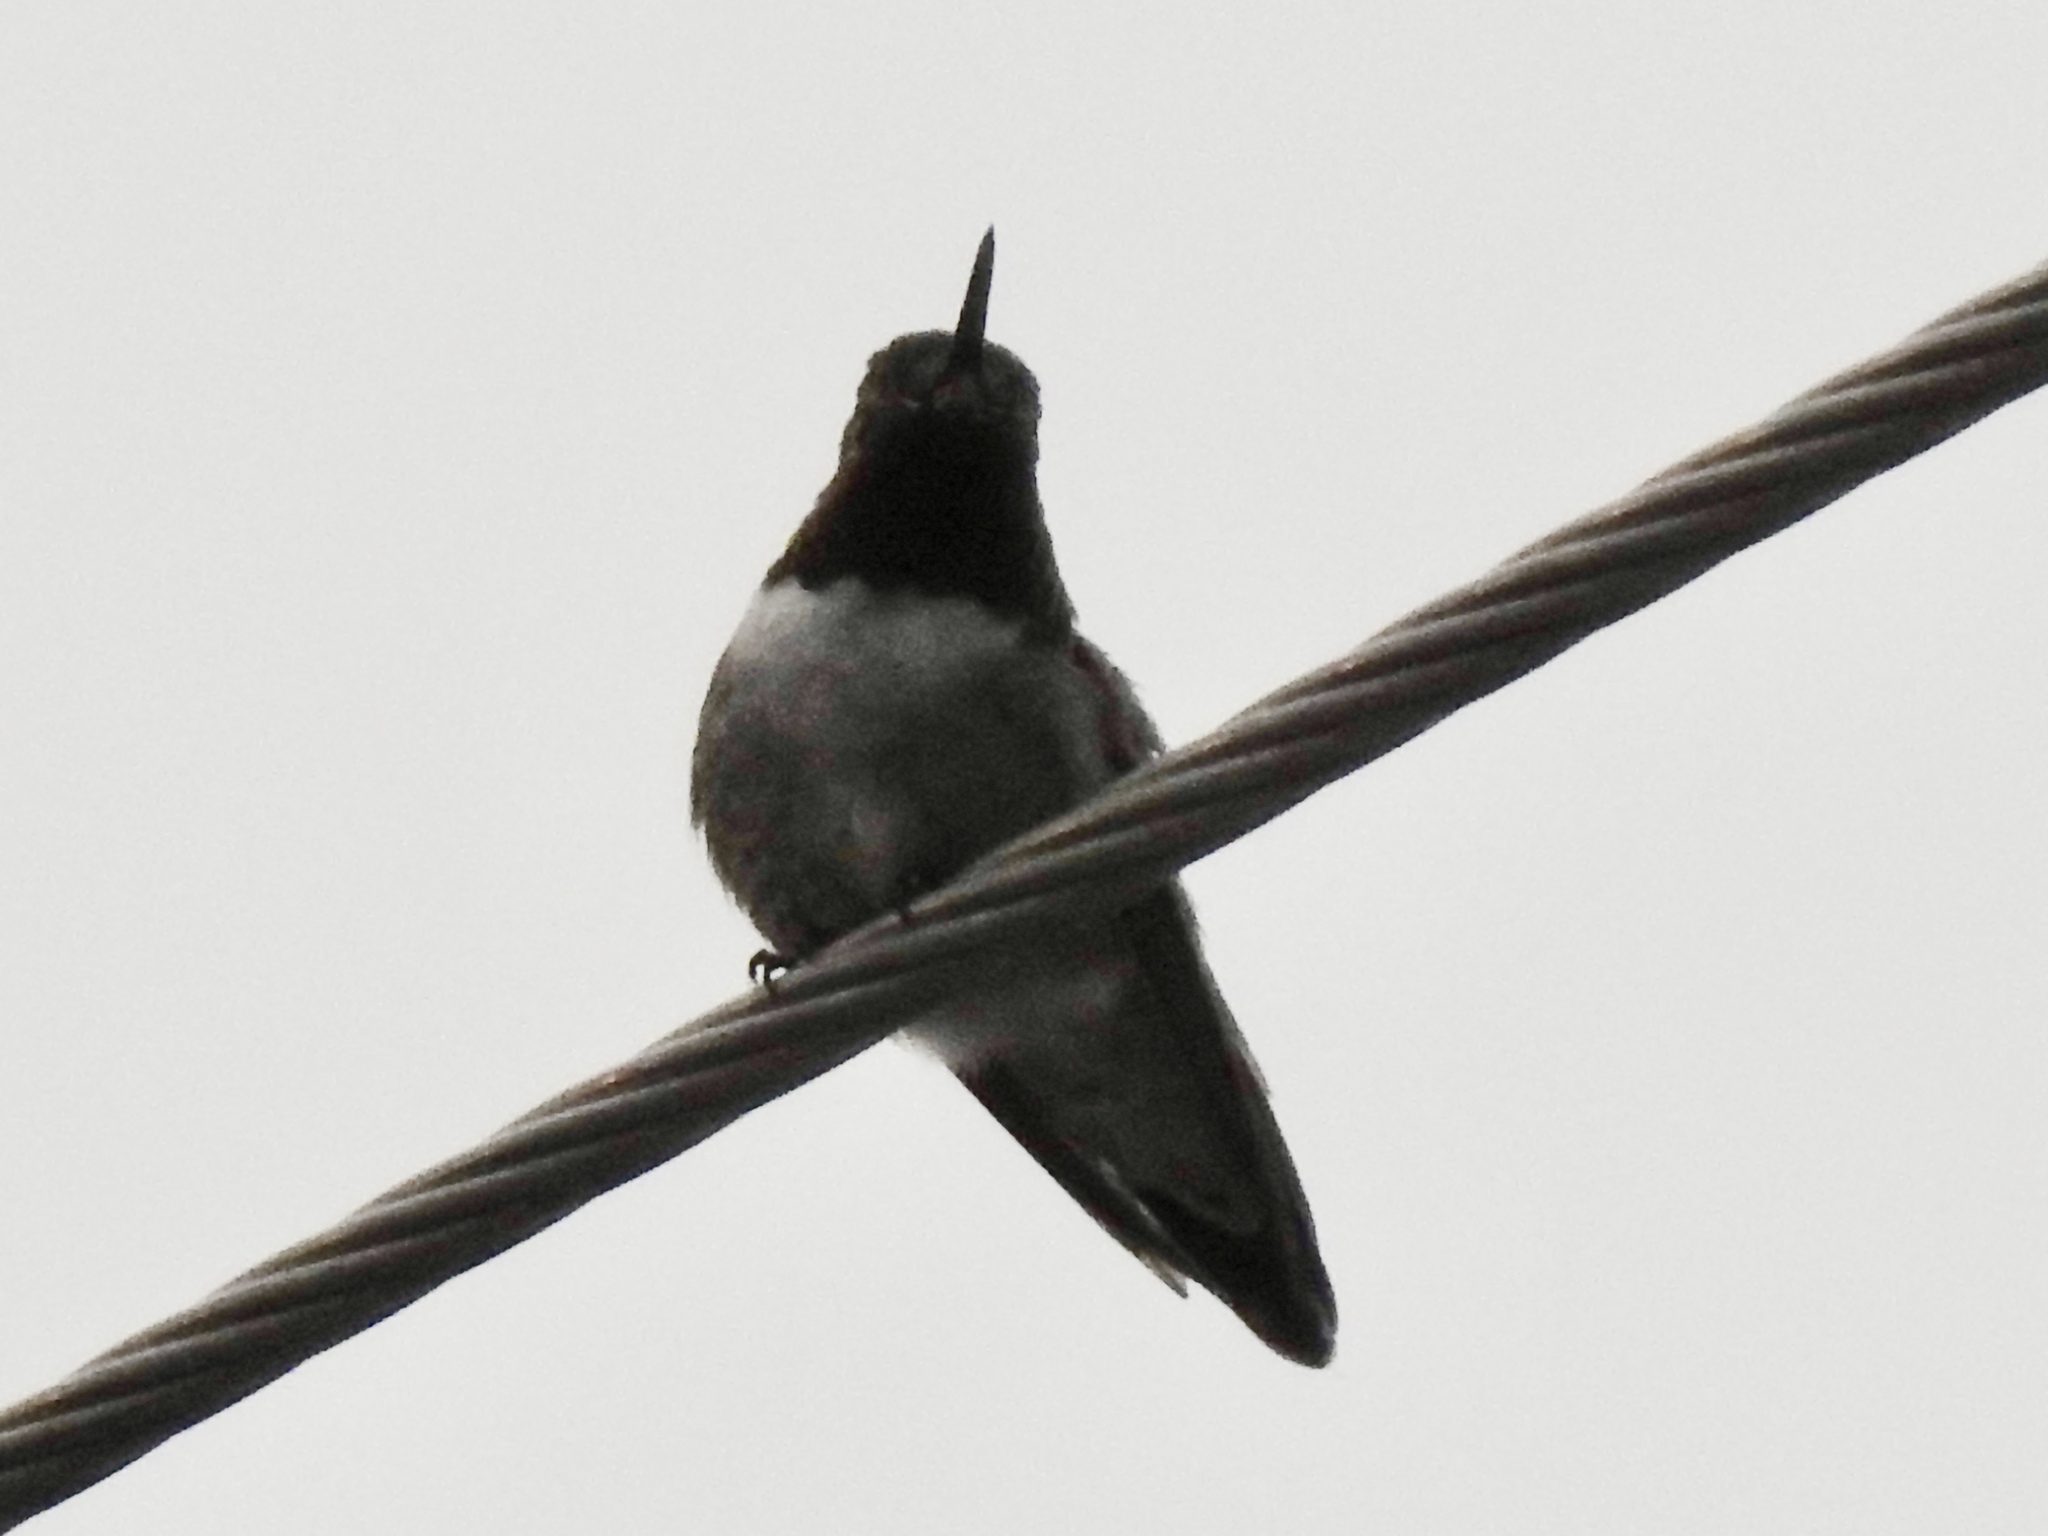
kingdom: Animalia
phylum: Chordata
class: Aves
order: Apodiformes
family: Trochilidae
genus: Selasphorus
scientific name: Selasphorus platycercus
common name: Broad-tailed hummingbird
